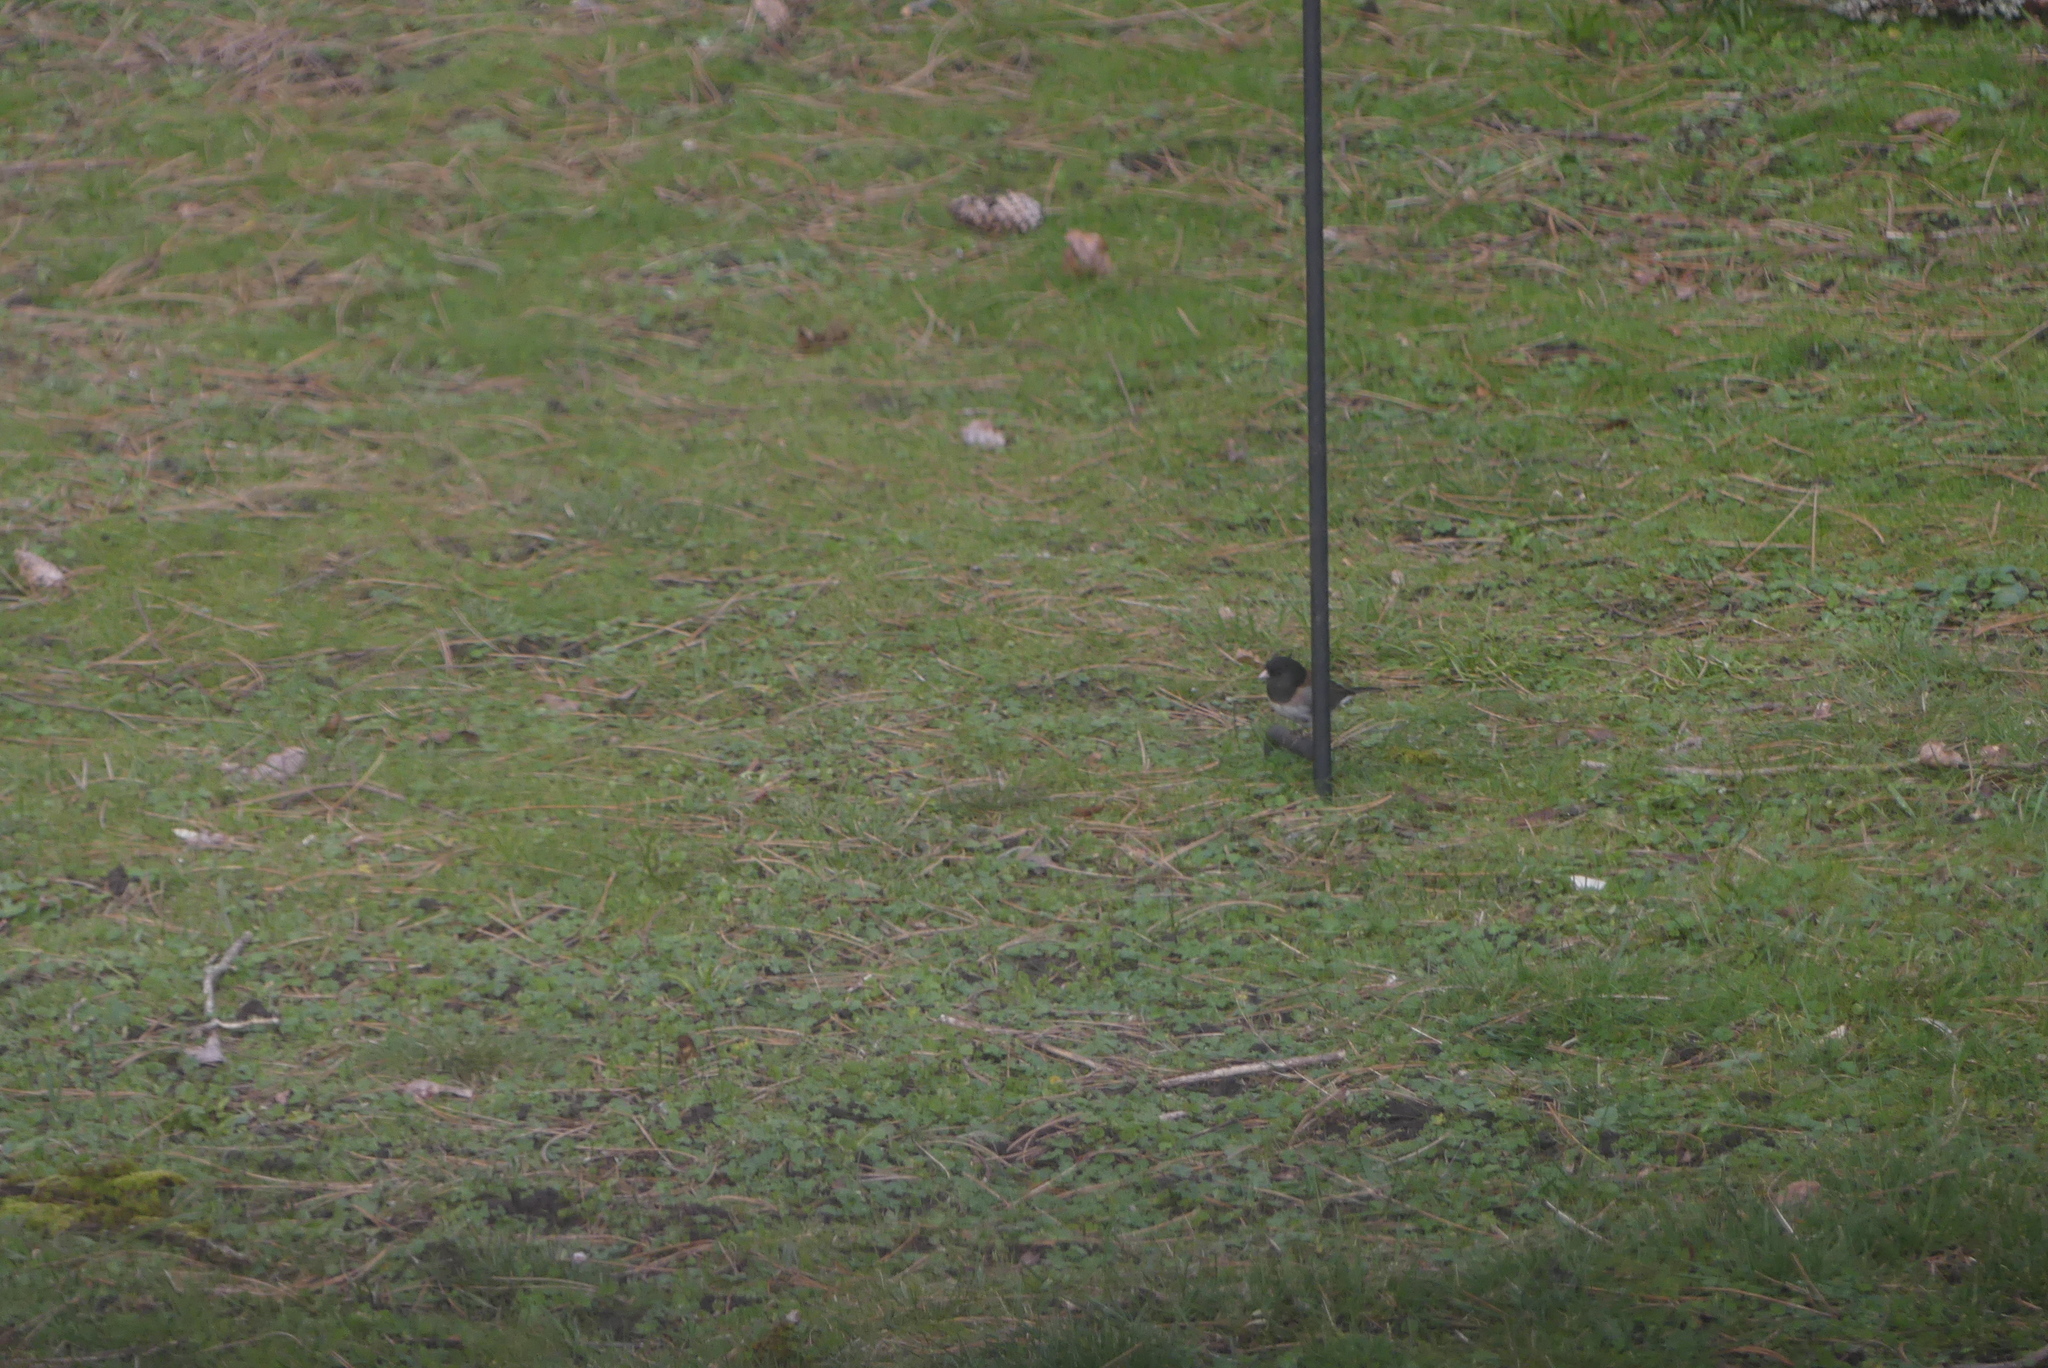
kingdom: Animalia
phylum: Chordata
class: Aves
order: Passeriformes
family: Passerellidae
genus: Junco
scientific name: Junco hyemalis
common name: Dark-eyed junco
